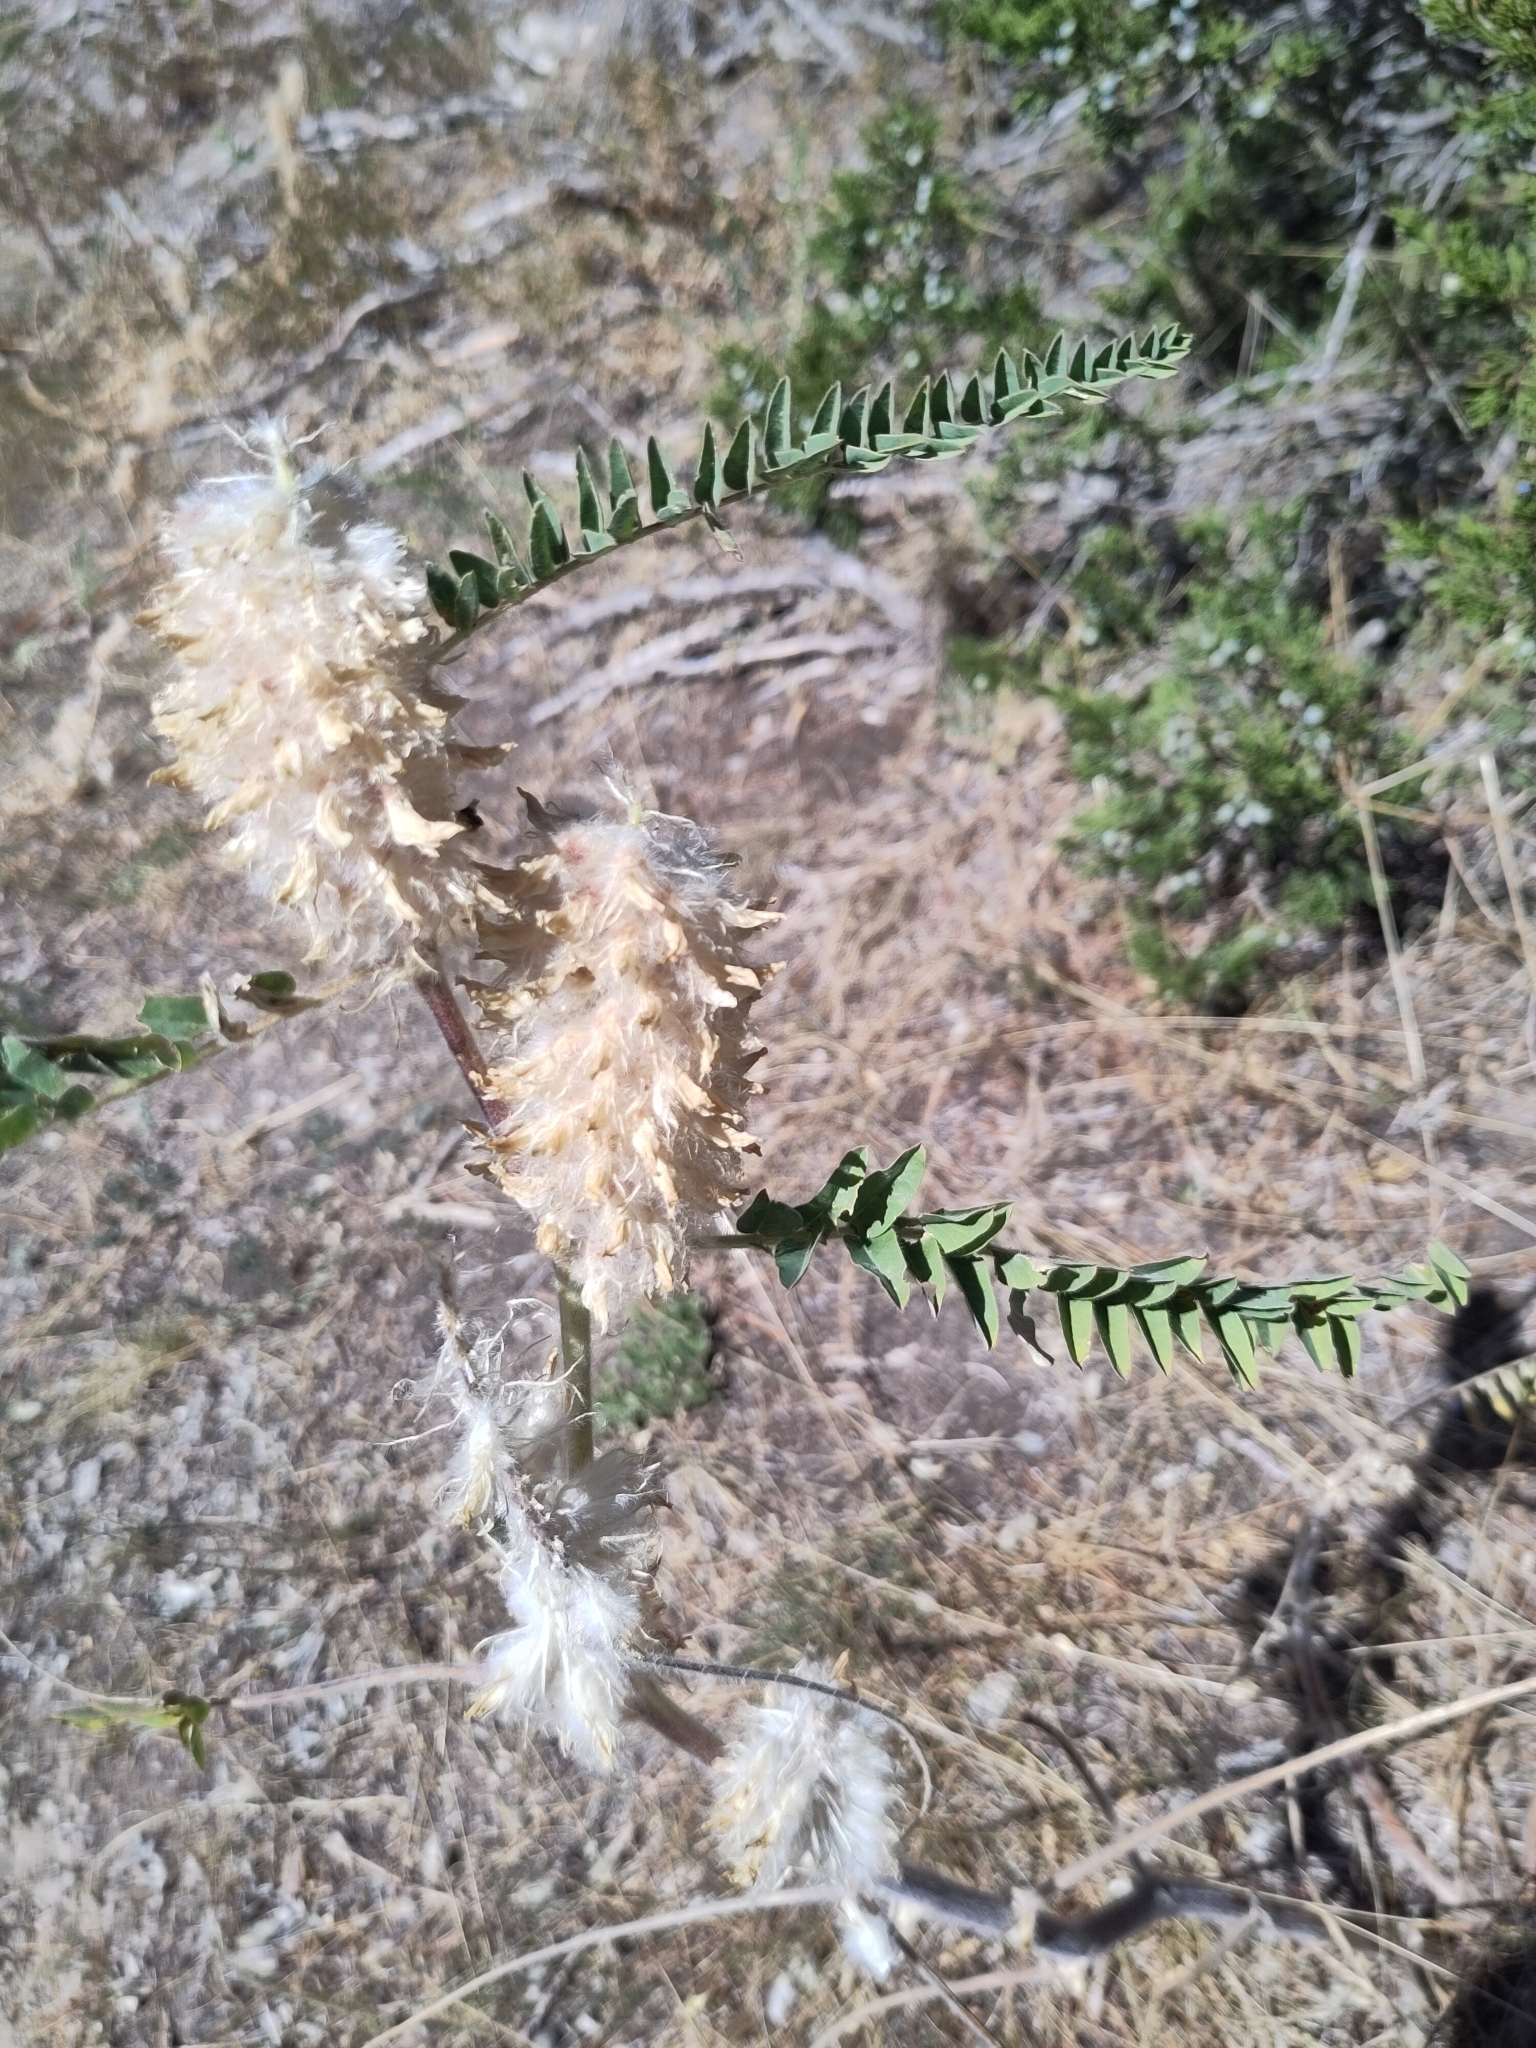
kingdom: Plantae
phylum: Tracheophyta
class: Magnoliopsida
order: Fabales
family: Fabaceae
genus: Astragalus
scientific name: Astragalus alopecurus
